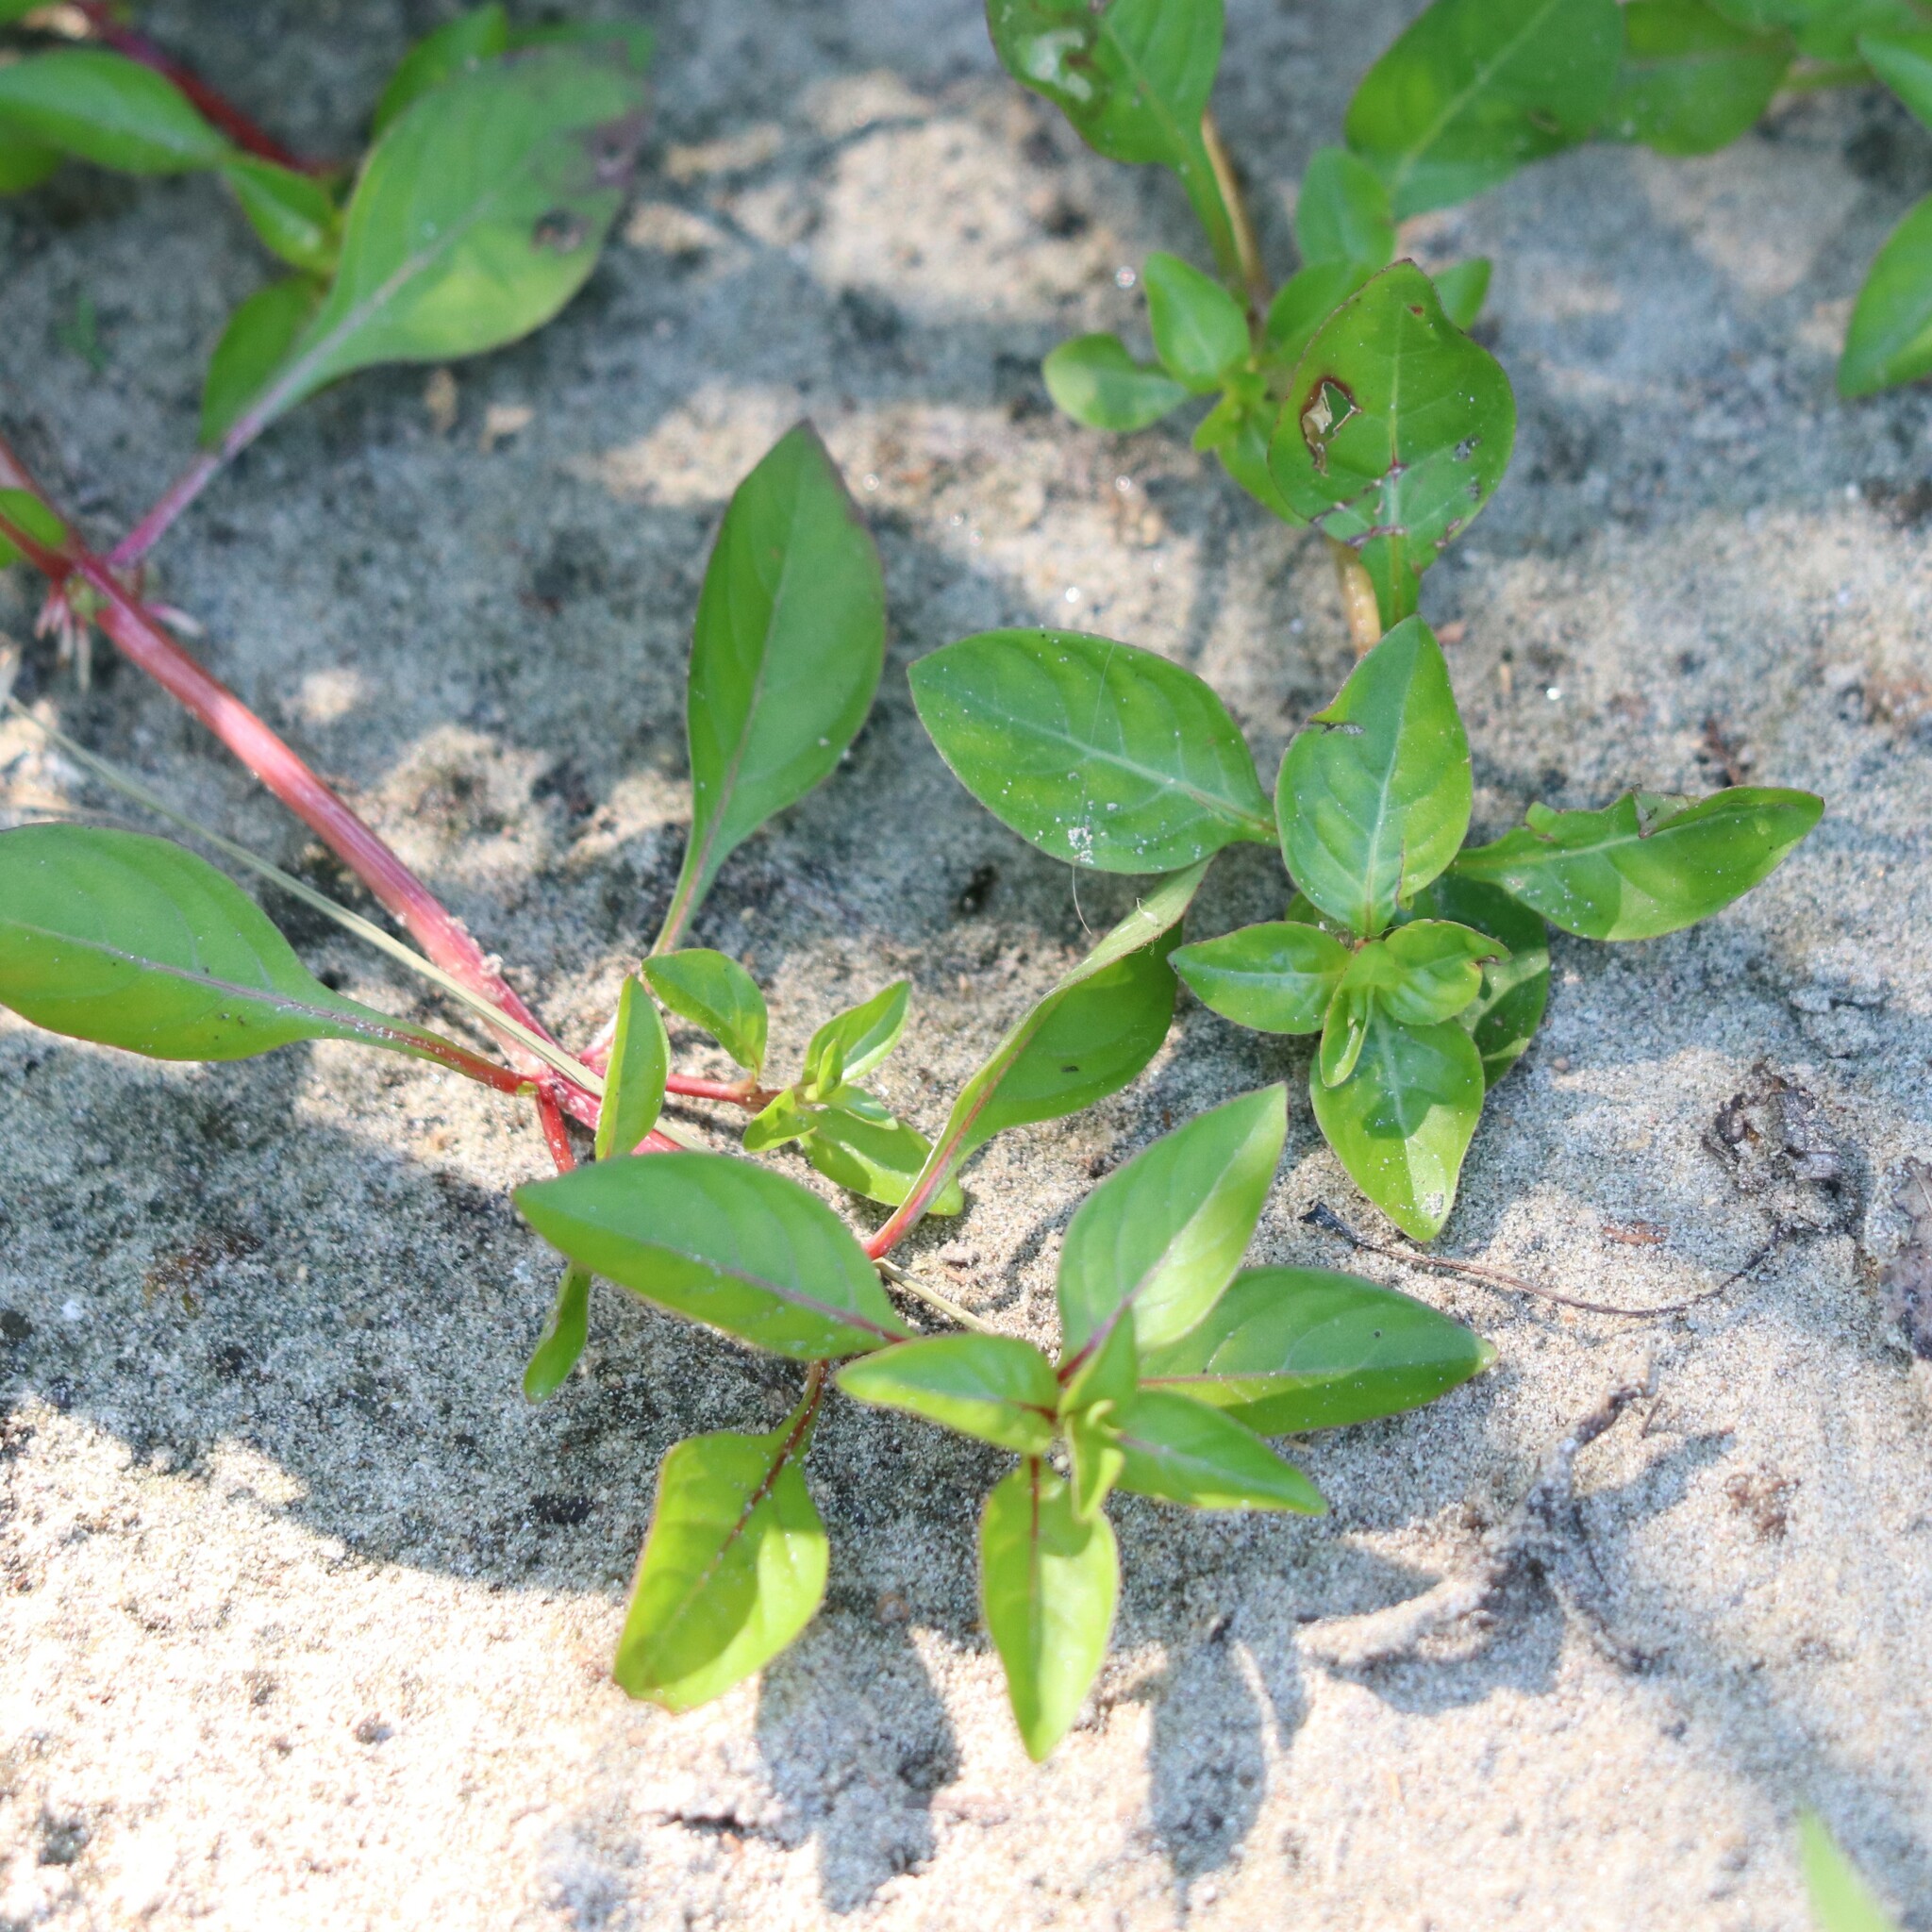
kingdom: Plantae
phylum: Tracheophyta
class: Magnoliopsida
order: Myrtales
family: Onagraceae
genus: Ludwigia
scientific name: Ludwigia palustris
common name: Hampshire-purslane
